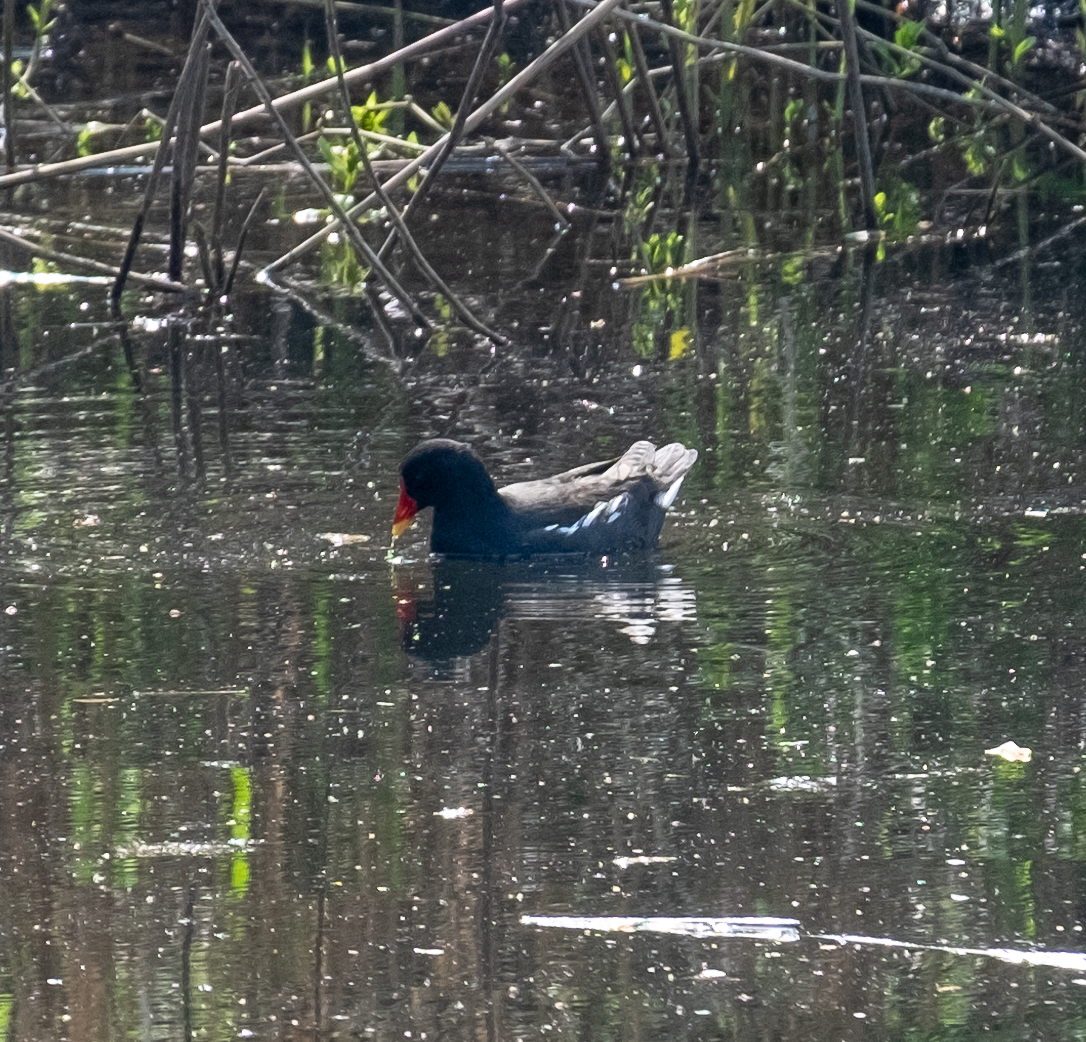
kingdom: Animalia
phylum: Chordata
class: Aves
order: Gruiformes
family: Rallidae
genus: Gallinula
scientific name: Gallinula chloropus
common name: Common moorhen
